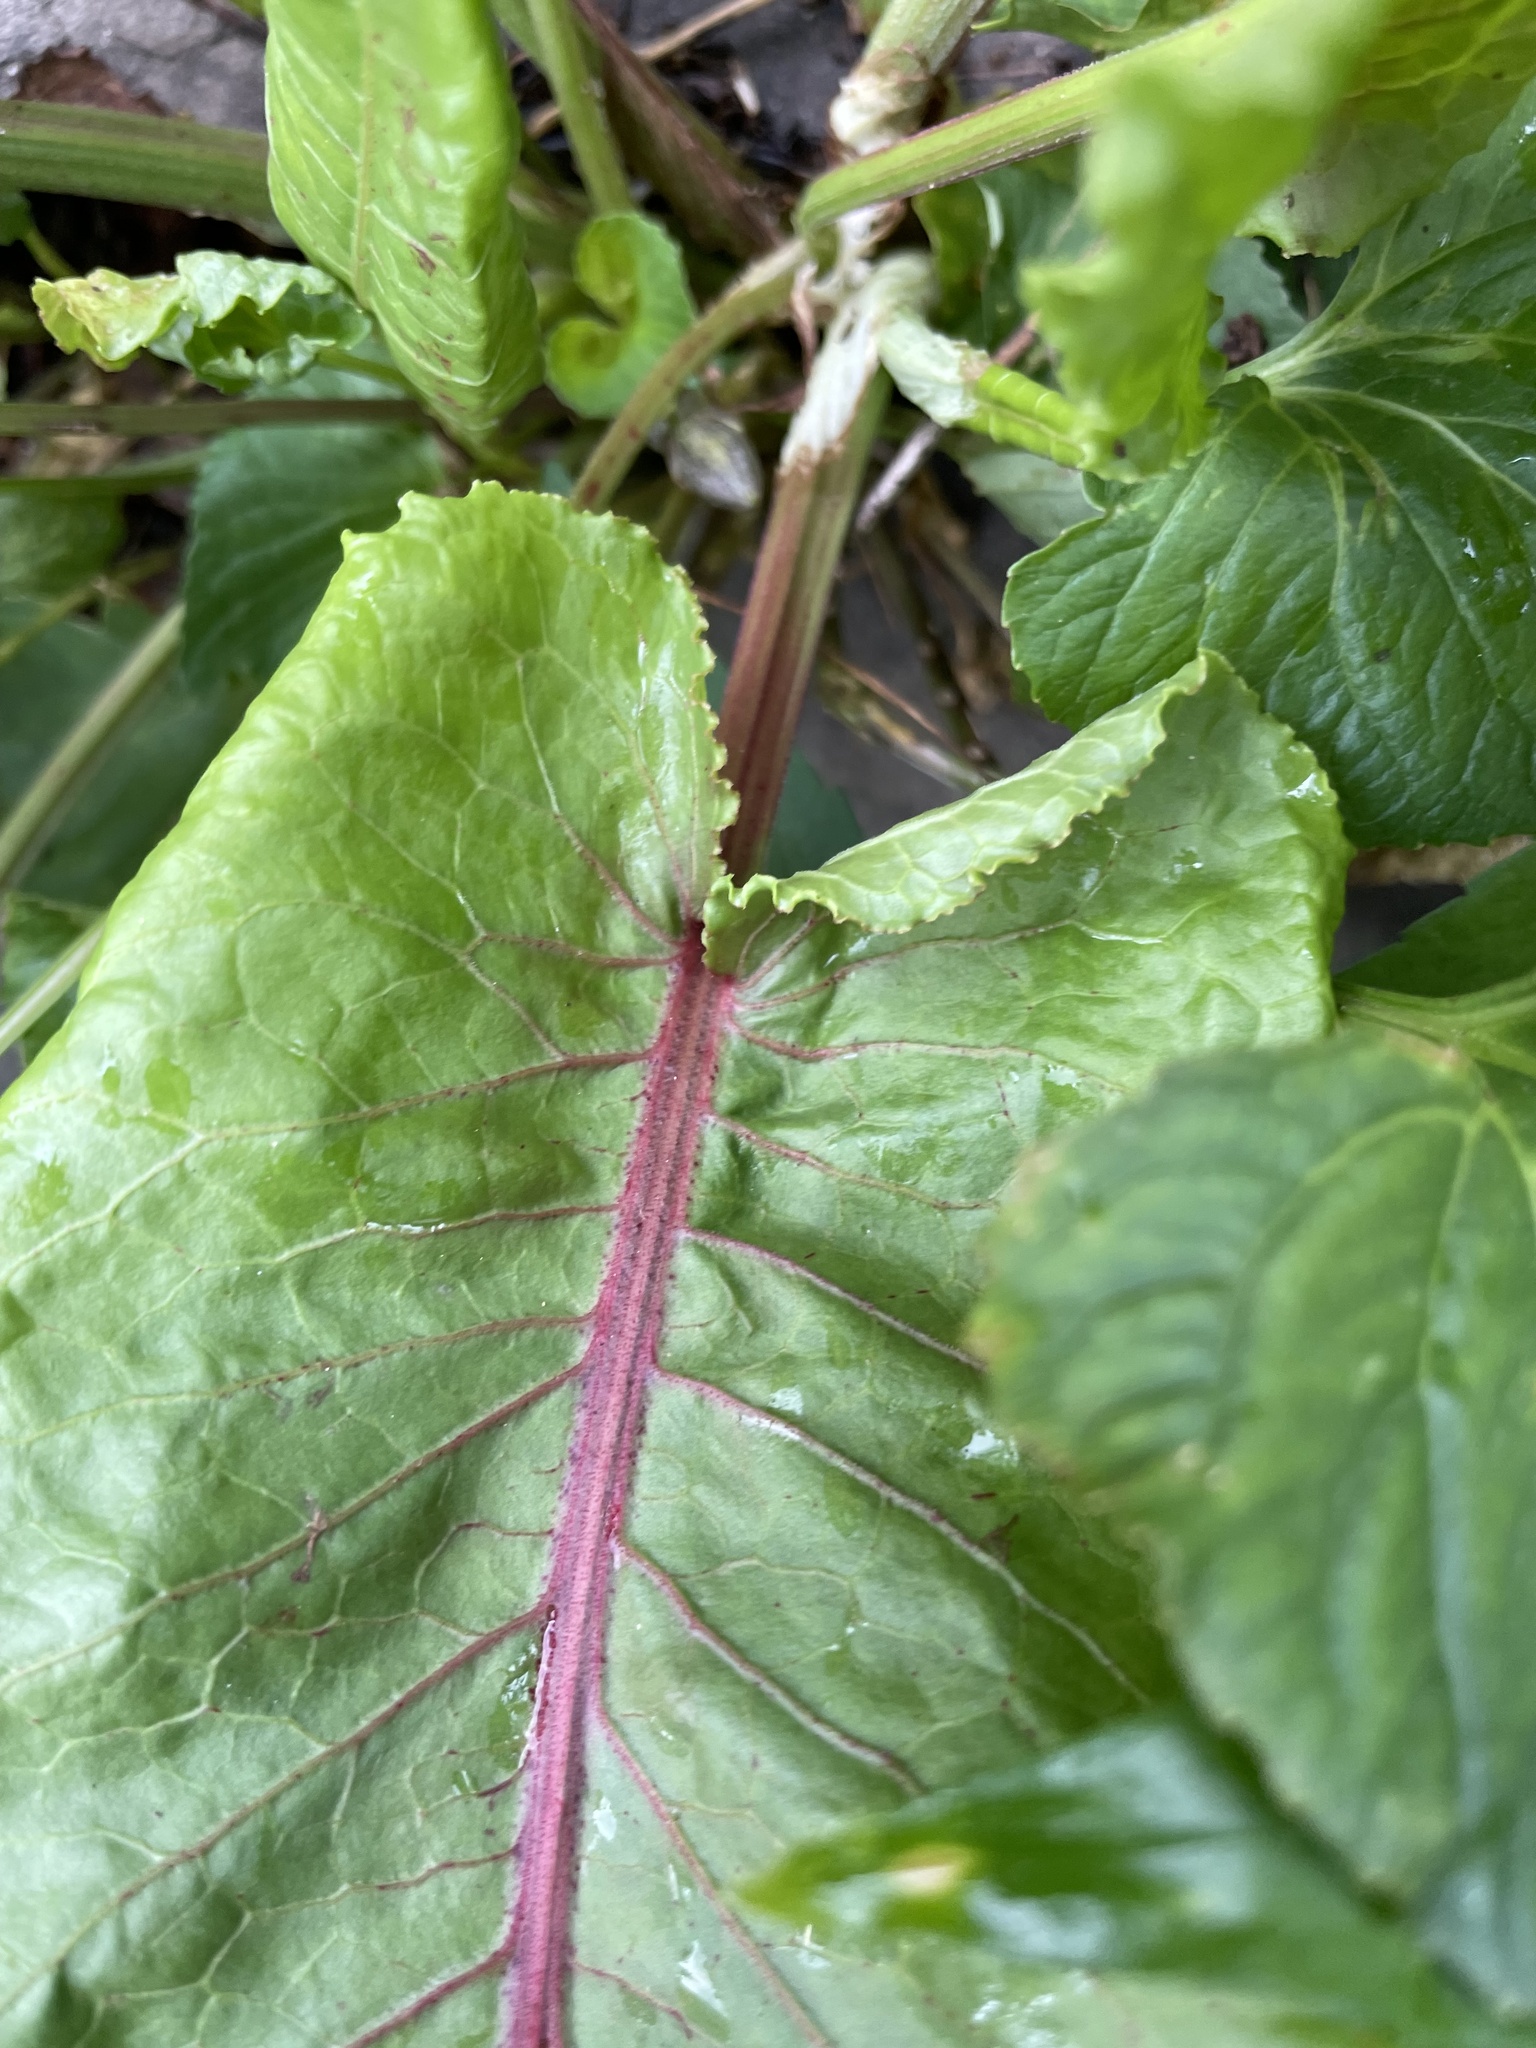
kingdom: Plantae
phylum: Tracheophyta
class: Magnoliopsida
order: Caryophyllales
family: Polygonaceae
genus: Rumex
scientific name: Rumex obtusifolius
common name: Bitter dock
